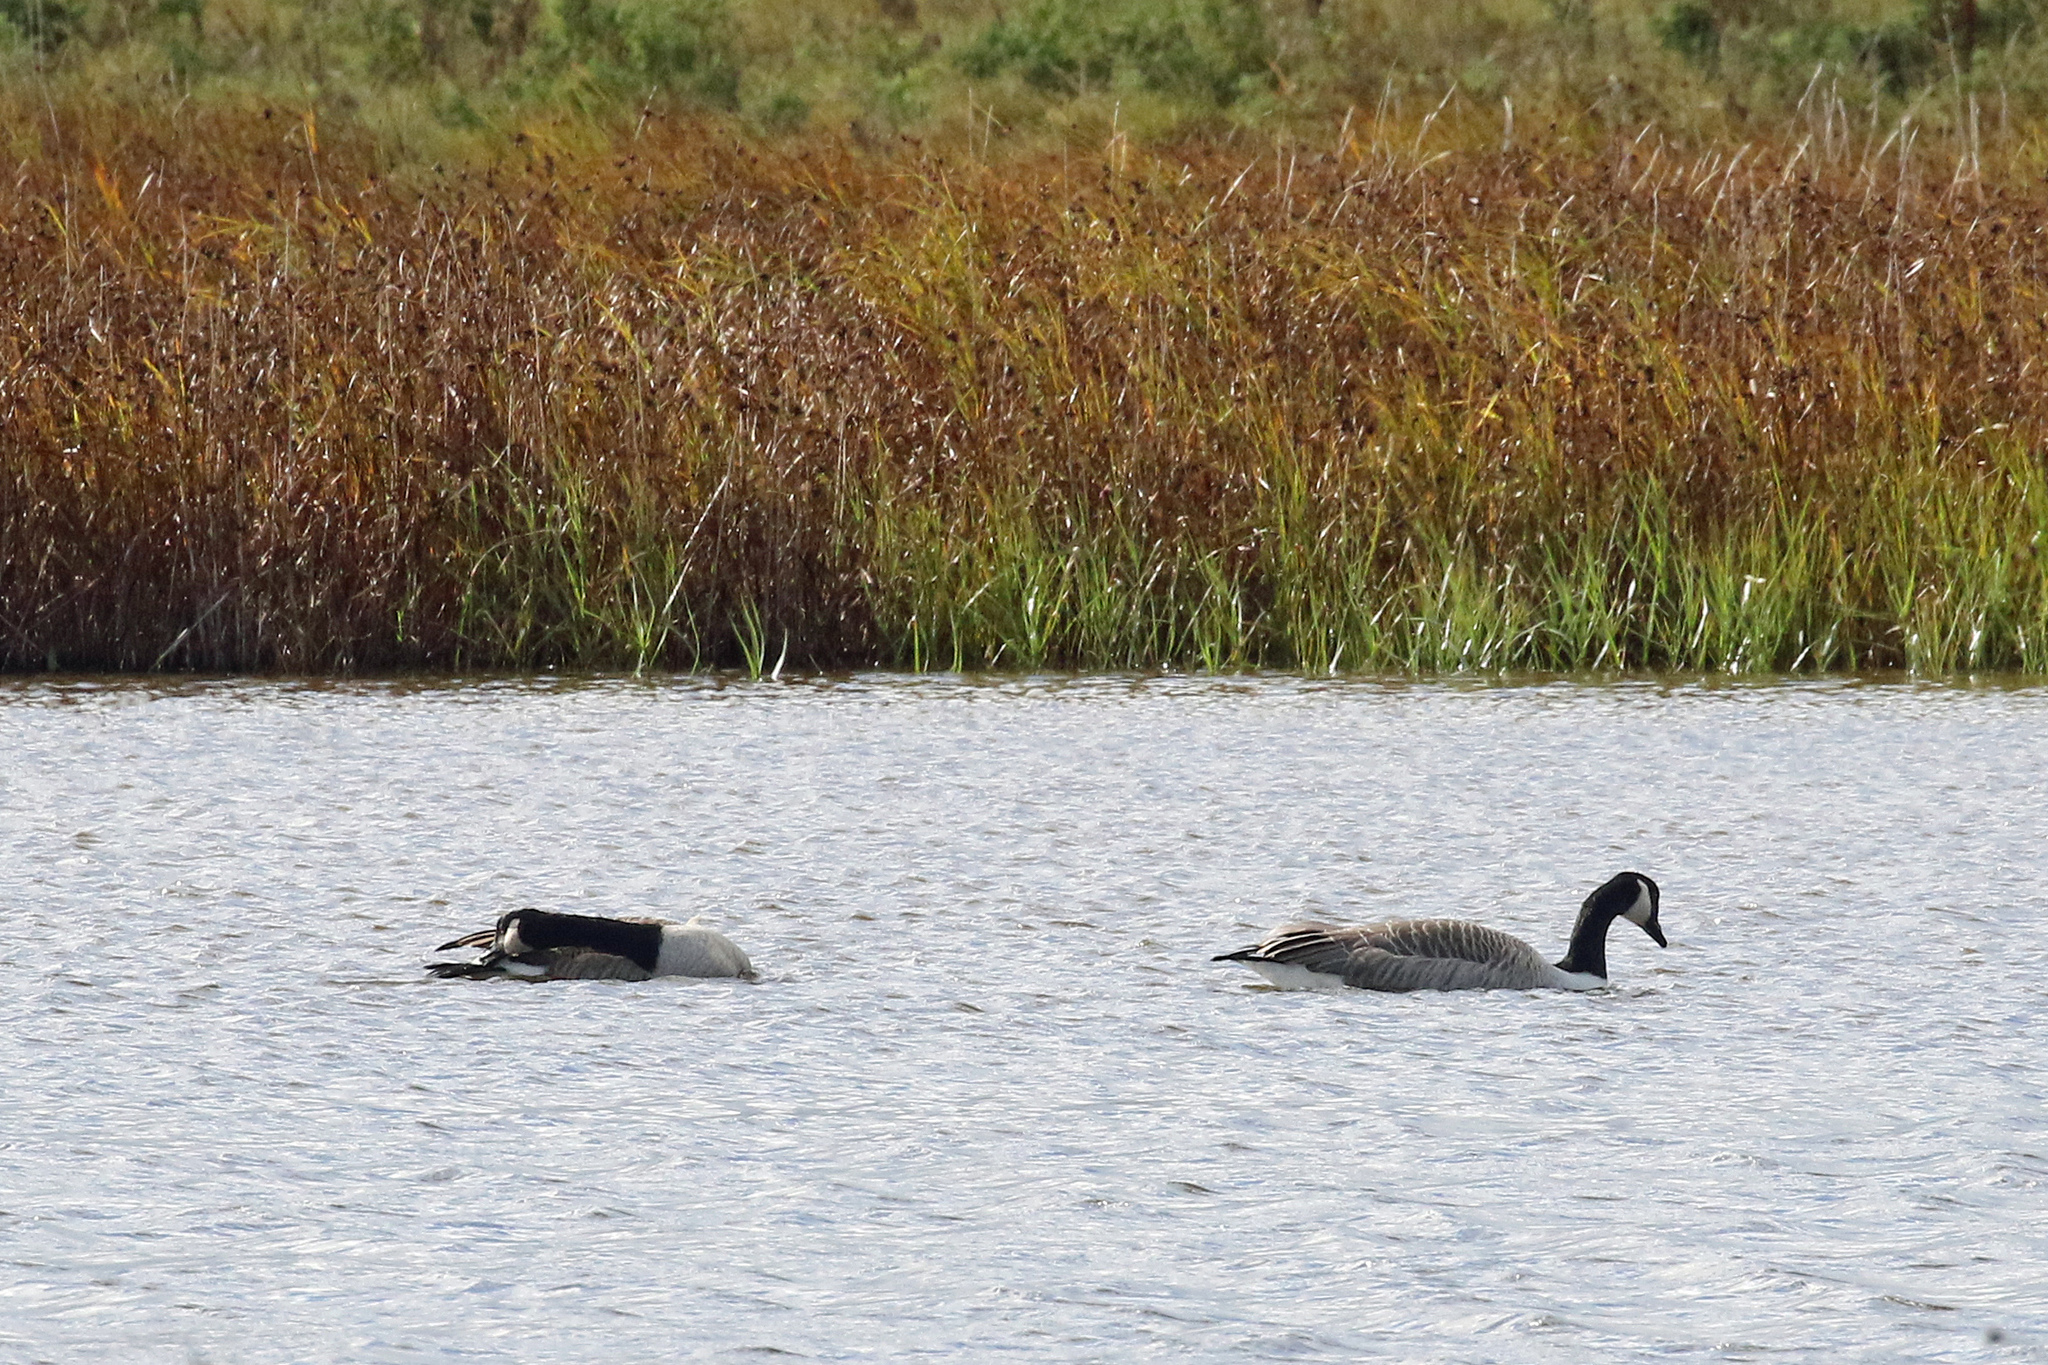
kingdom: Animalia
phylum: Chordata
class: Aves
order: Anseriformes
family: Anatidae
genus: Branta
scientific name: Branta canadensis
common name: Canada goose
